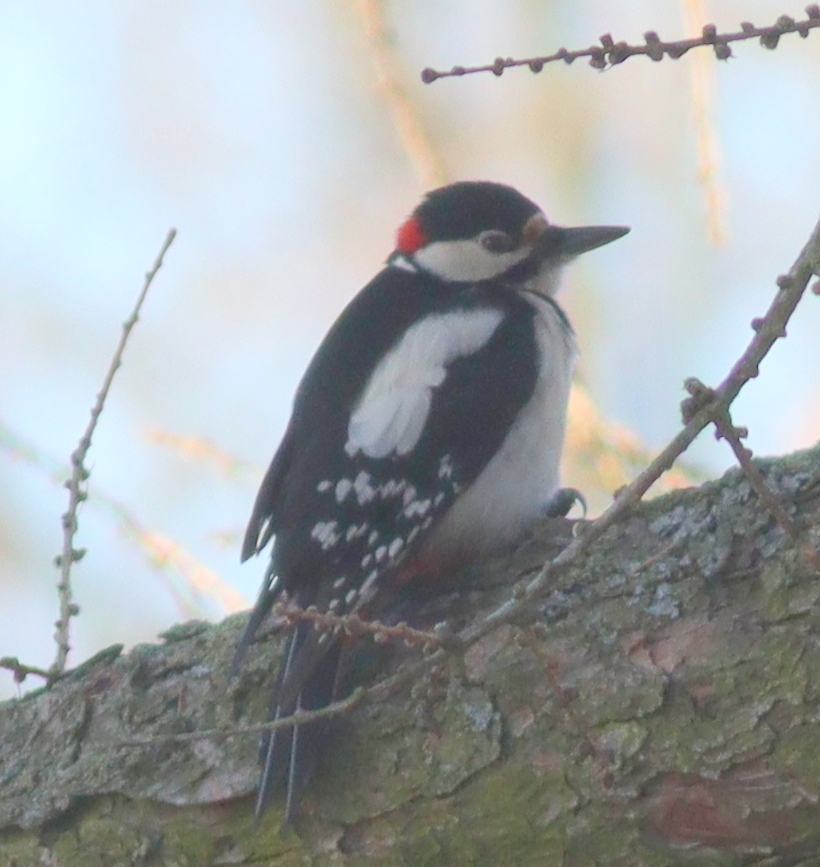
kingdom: Animalia
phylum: Chordata
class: Aves
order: Piciformes
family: Picidae
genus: Dendrocopos
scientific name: Dendrocopos major
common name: Great spotted woodpecker
